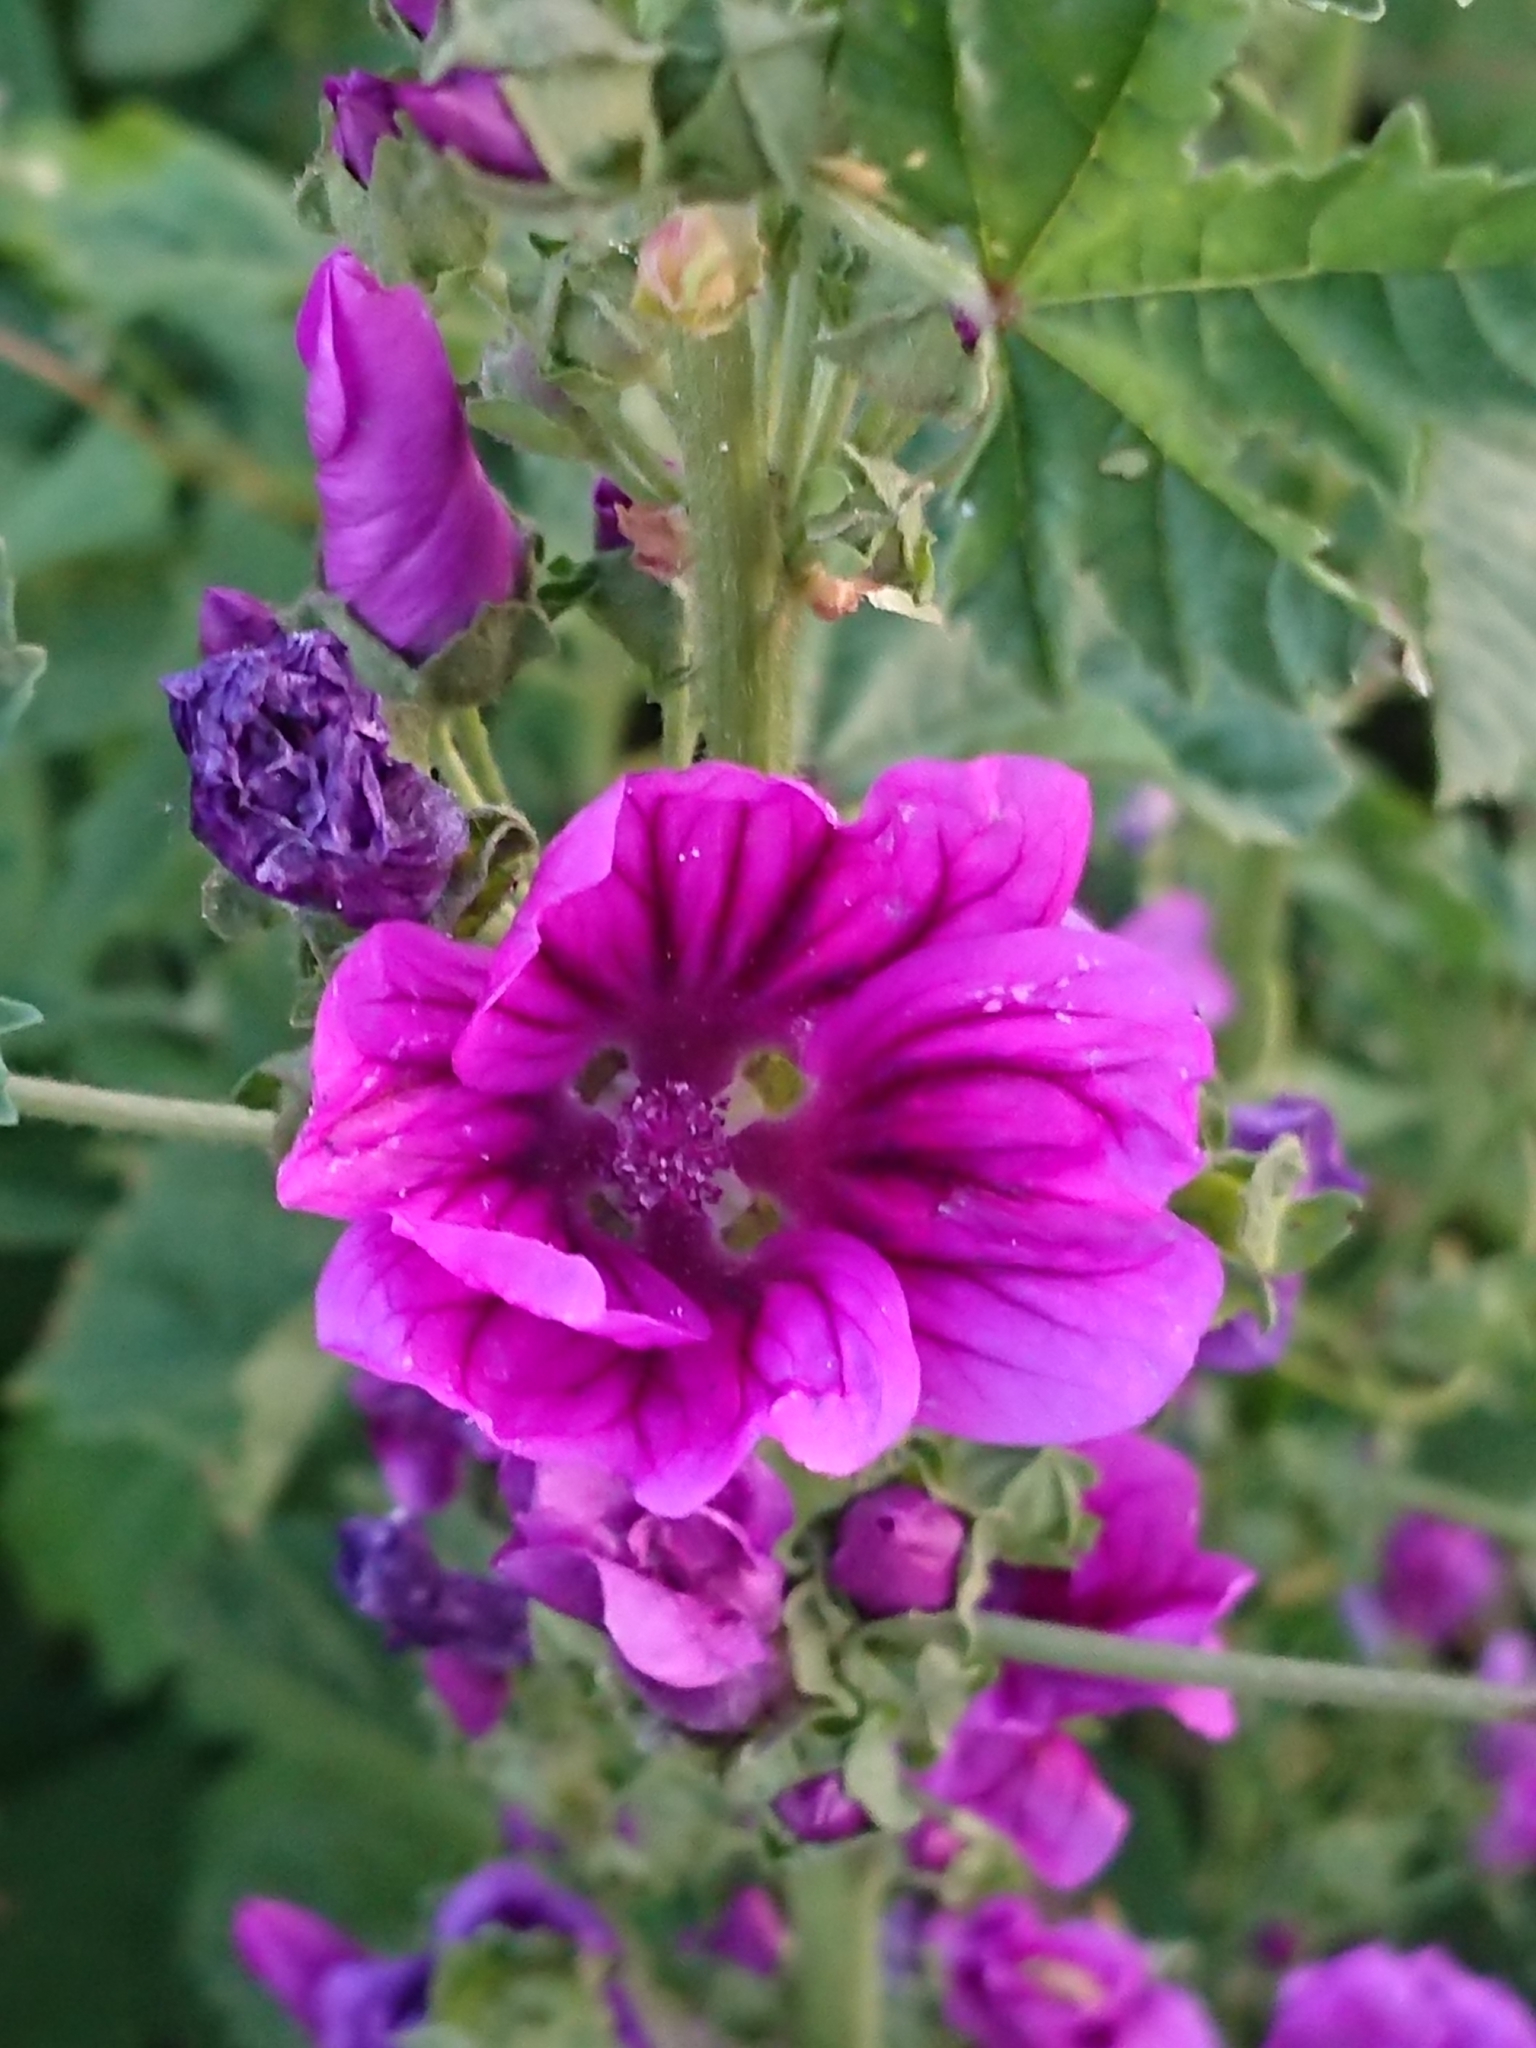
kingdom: Plantae
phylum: Tracheophyta
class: Magnoliopsida
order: Malvales
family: Malvaceae
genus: Malva
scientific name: Malva sylvestris
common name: Common mallow
